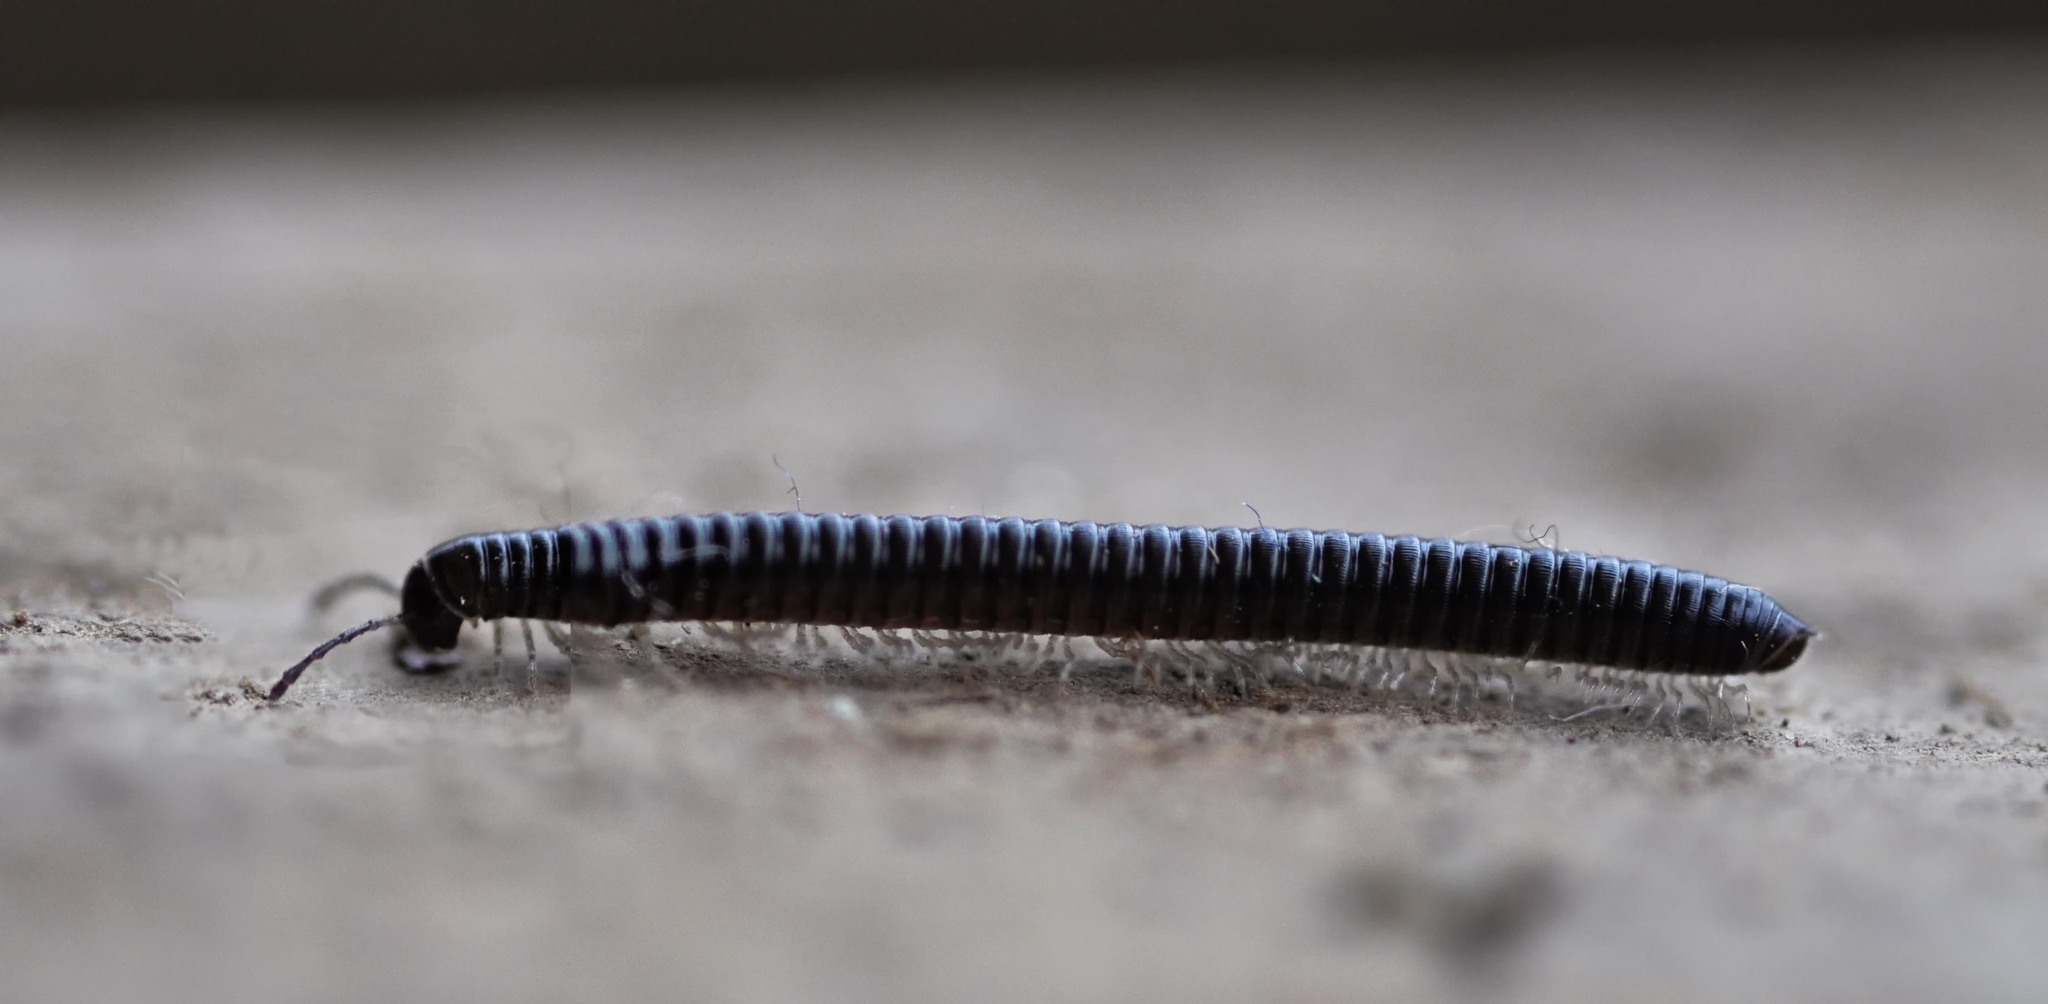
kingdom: Animalia
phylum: Arthropoda
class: Diplopoda
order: Julida
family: Julidae
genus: Tachypodoiulus
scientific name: Tachypodoiulus niger
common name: White-legged snake millipede
